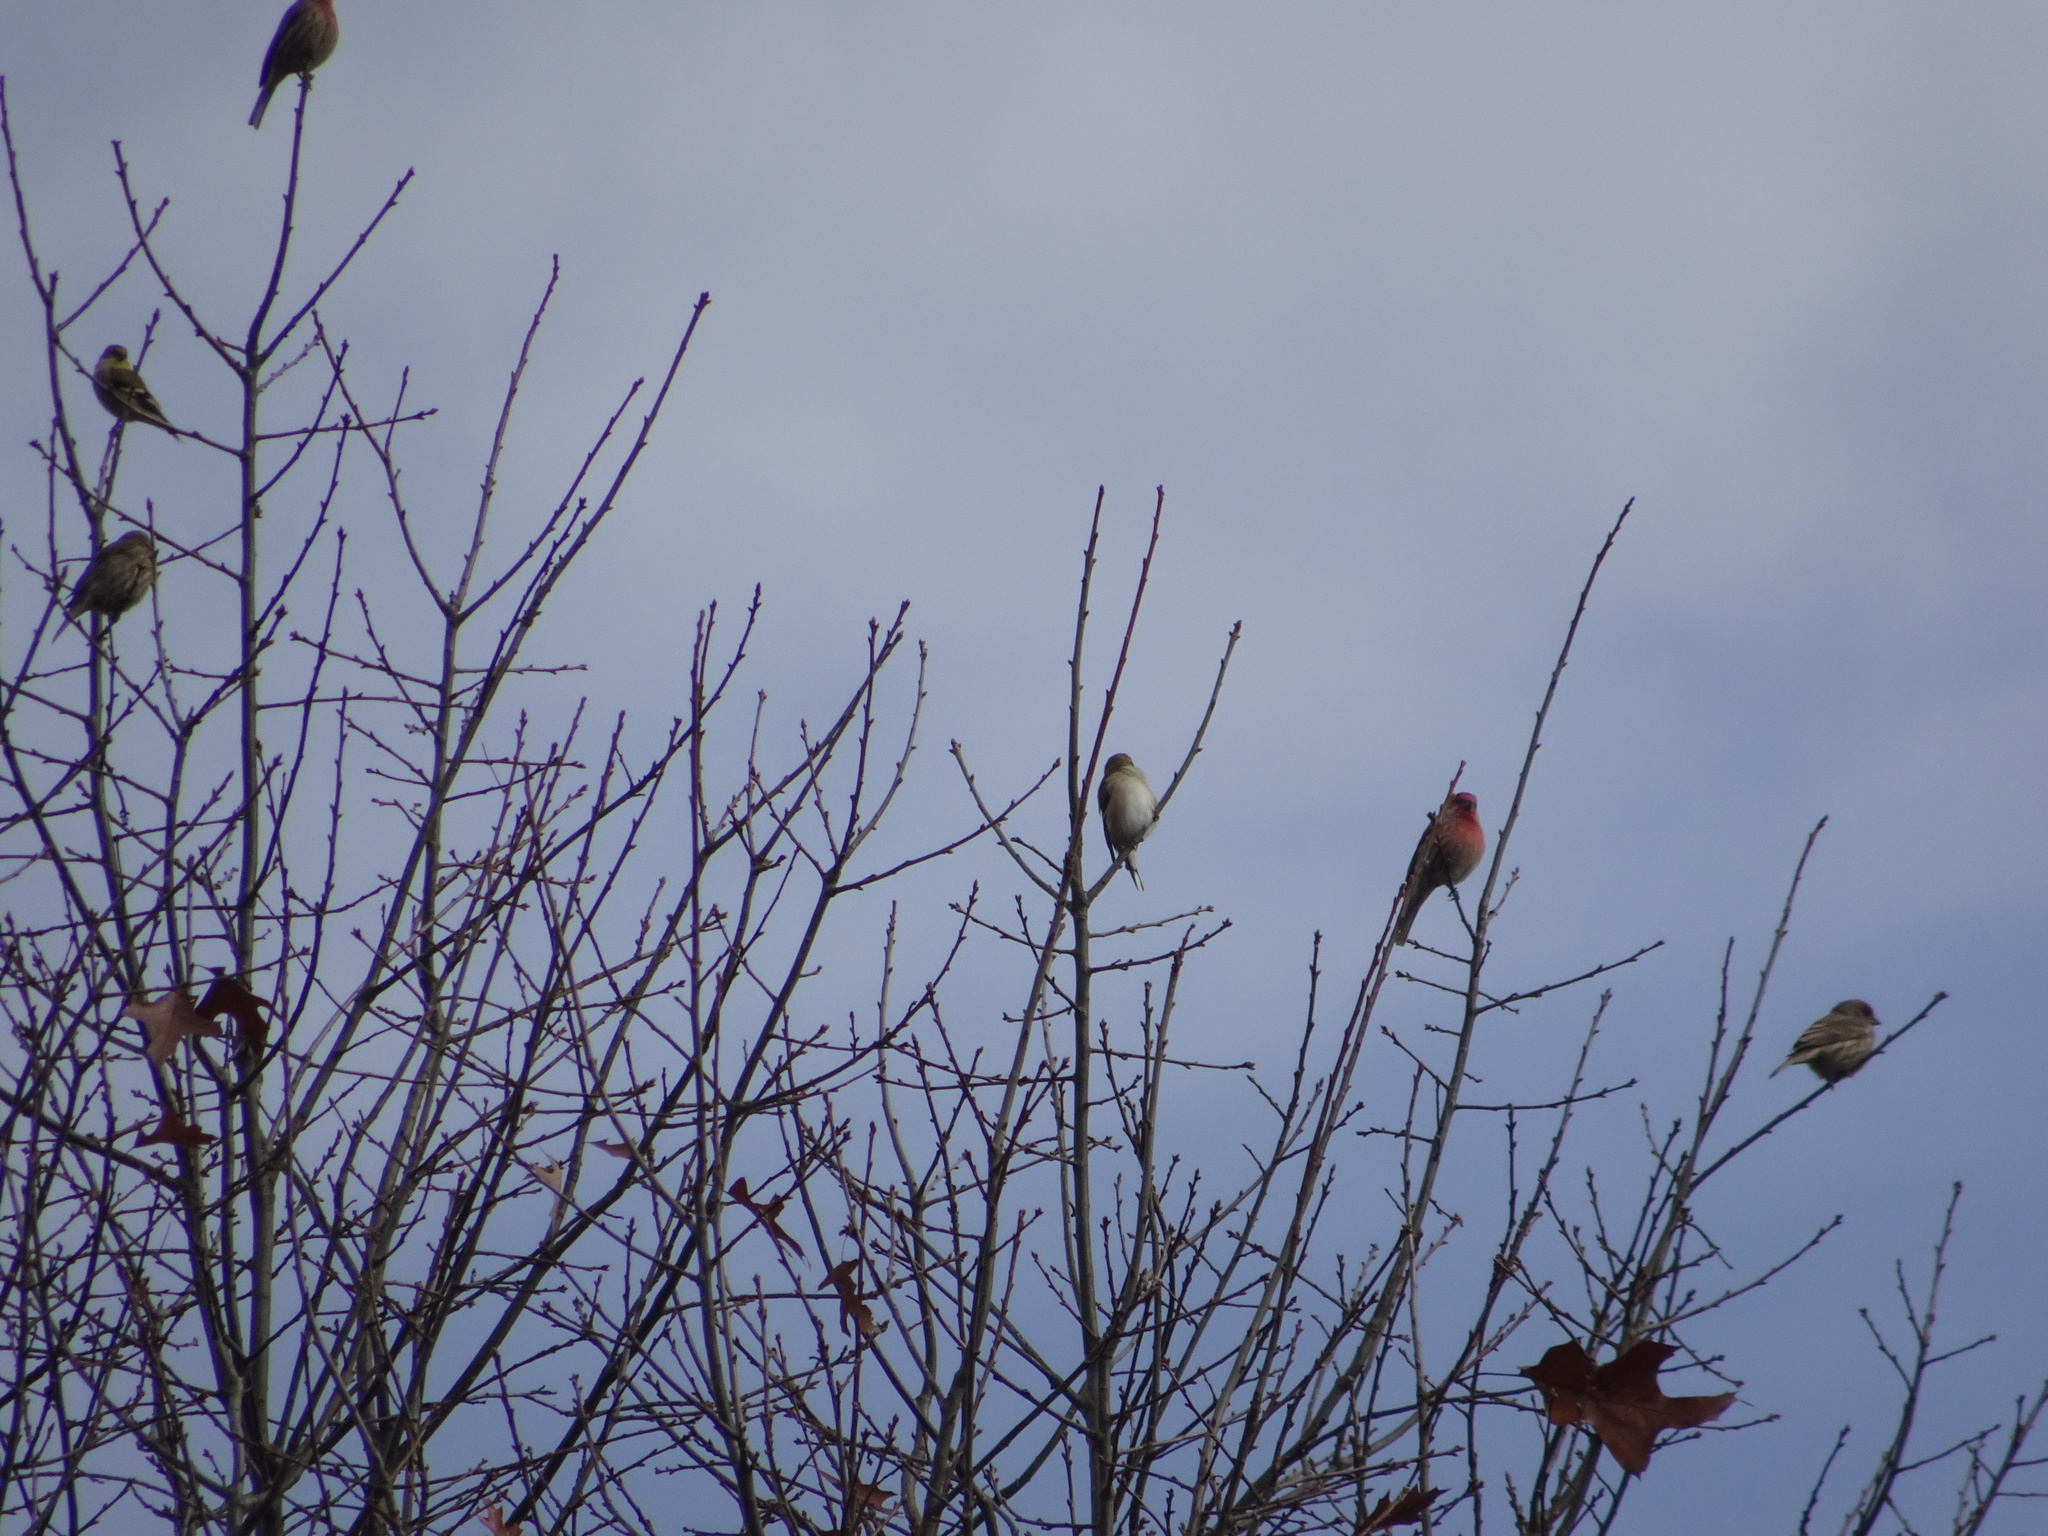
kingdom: Animalia
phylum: Chordata
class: Aves
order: Passeriformes
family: Fringillidae
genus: Haemorhous
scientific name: Haemorhous mexicanus
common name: House finch
